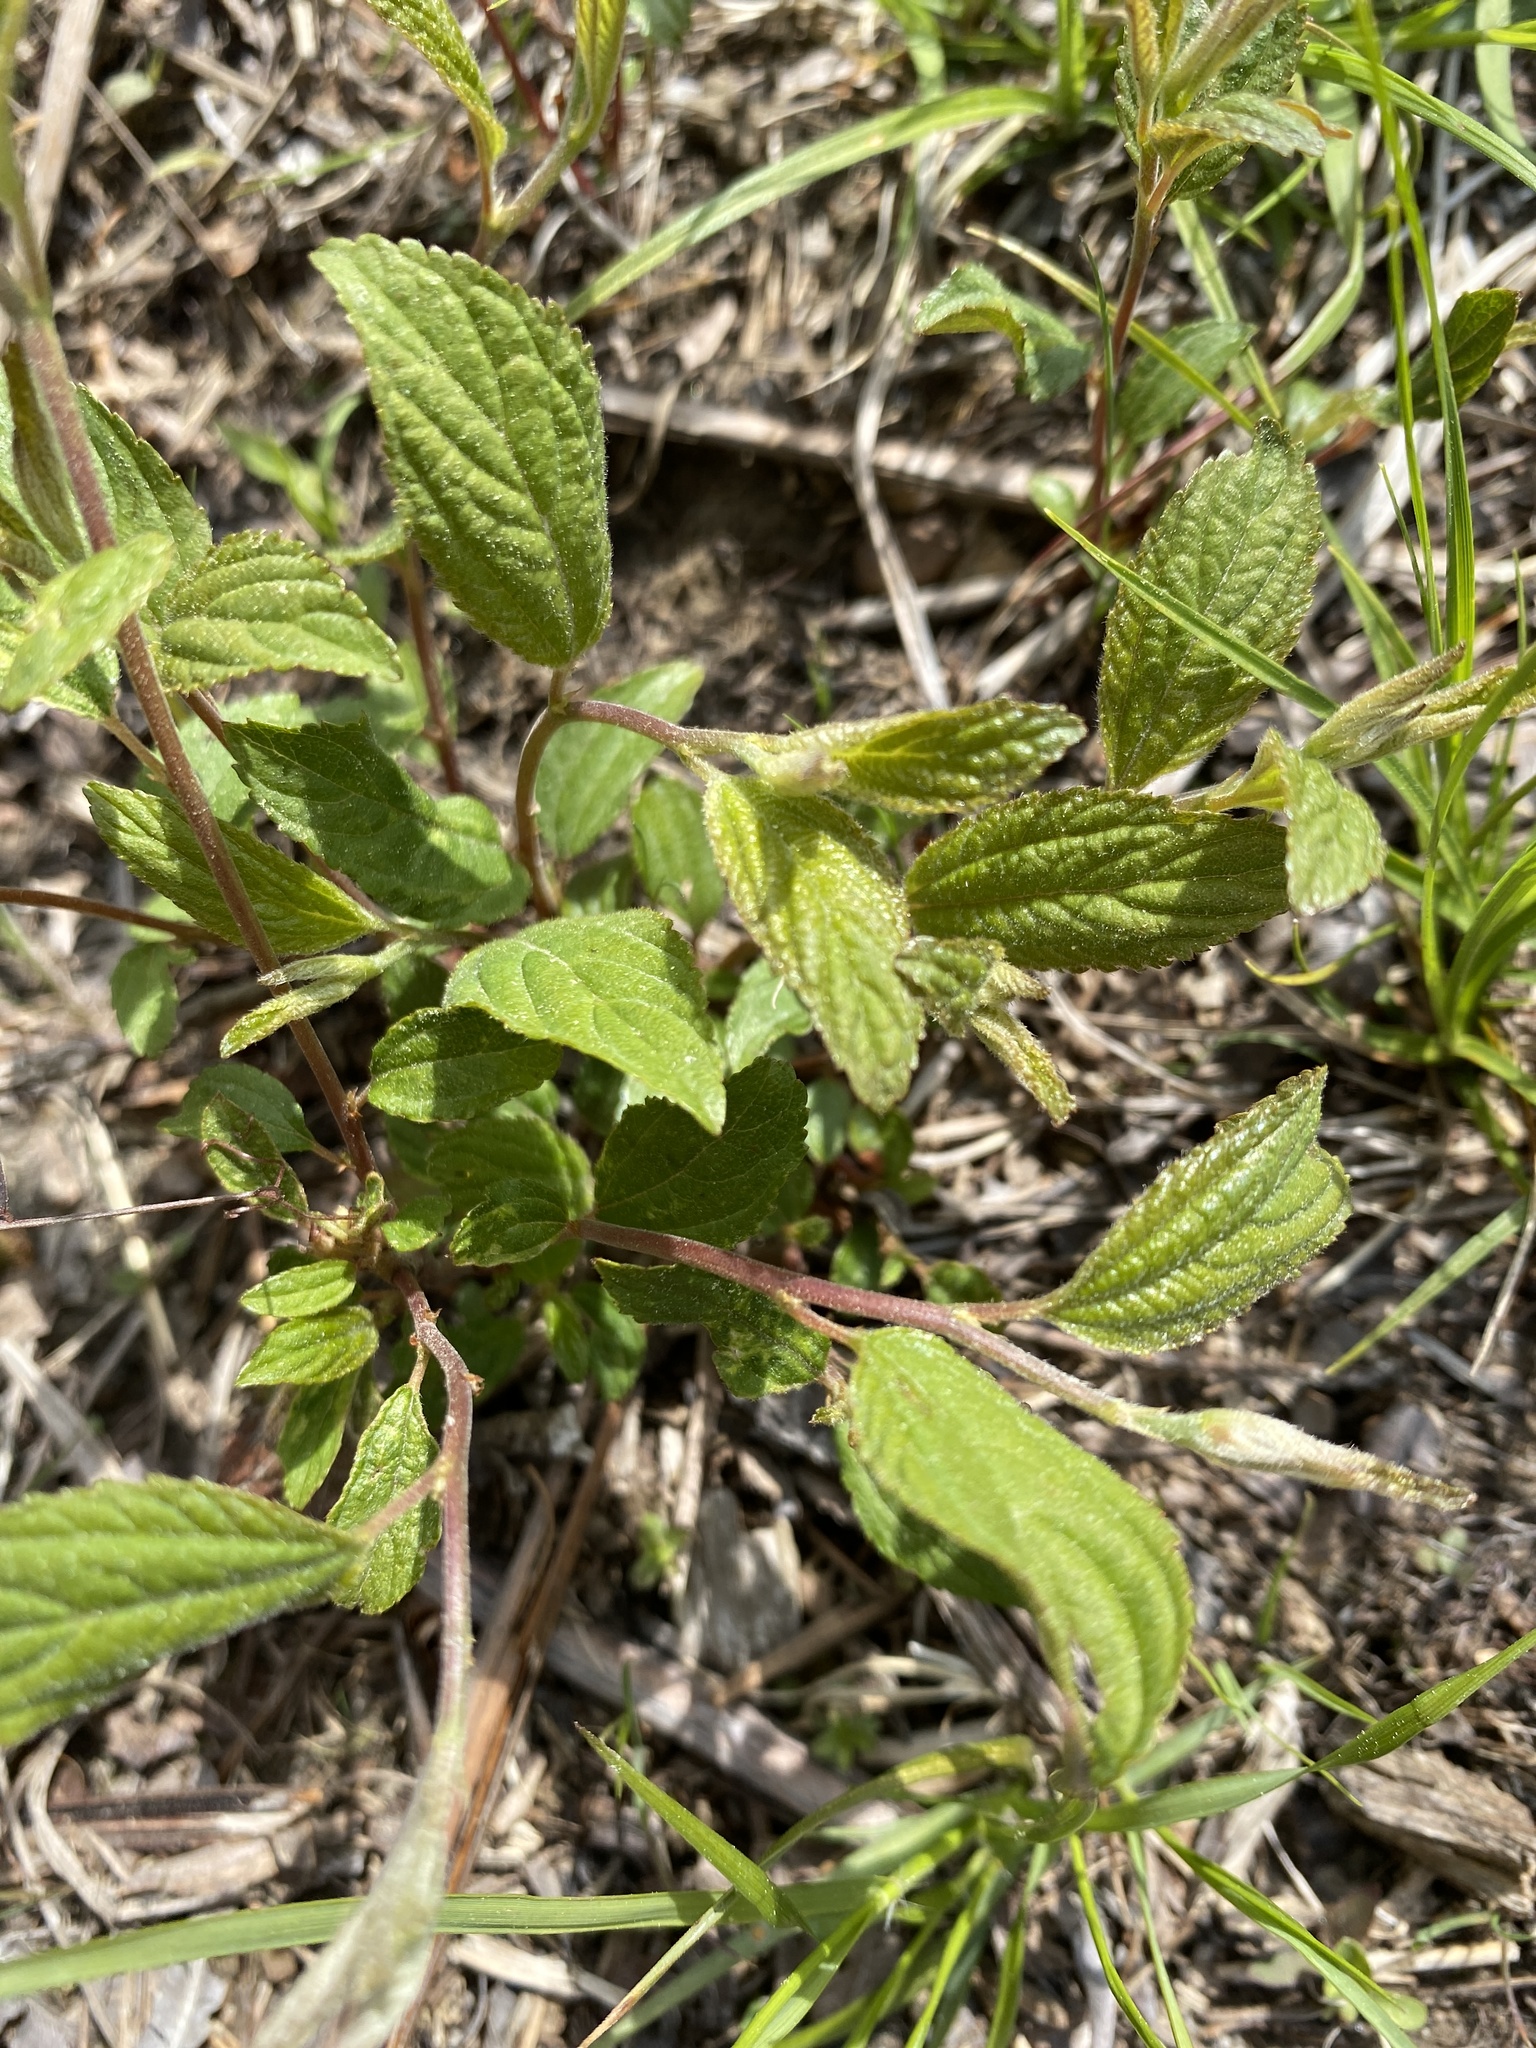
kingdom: Plantae
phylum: Tracheophyta
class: Magnoliopsida
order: Rosales
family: Rhamnaceae
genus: Ceanothus
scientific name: Ceanothus americanus
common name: Redroot
